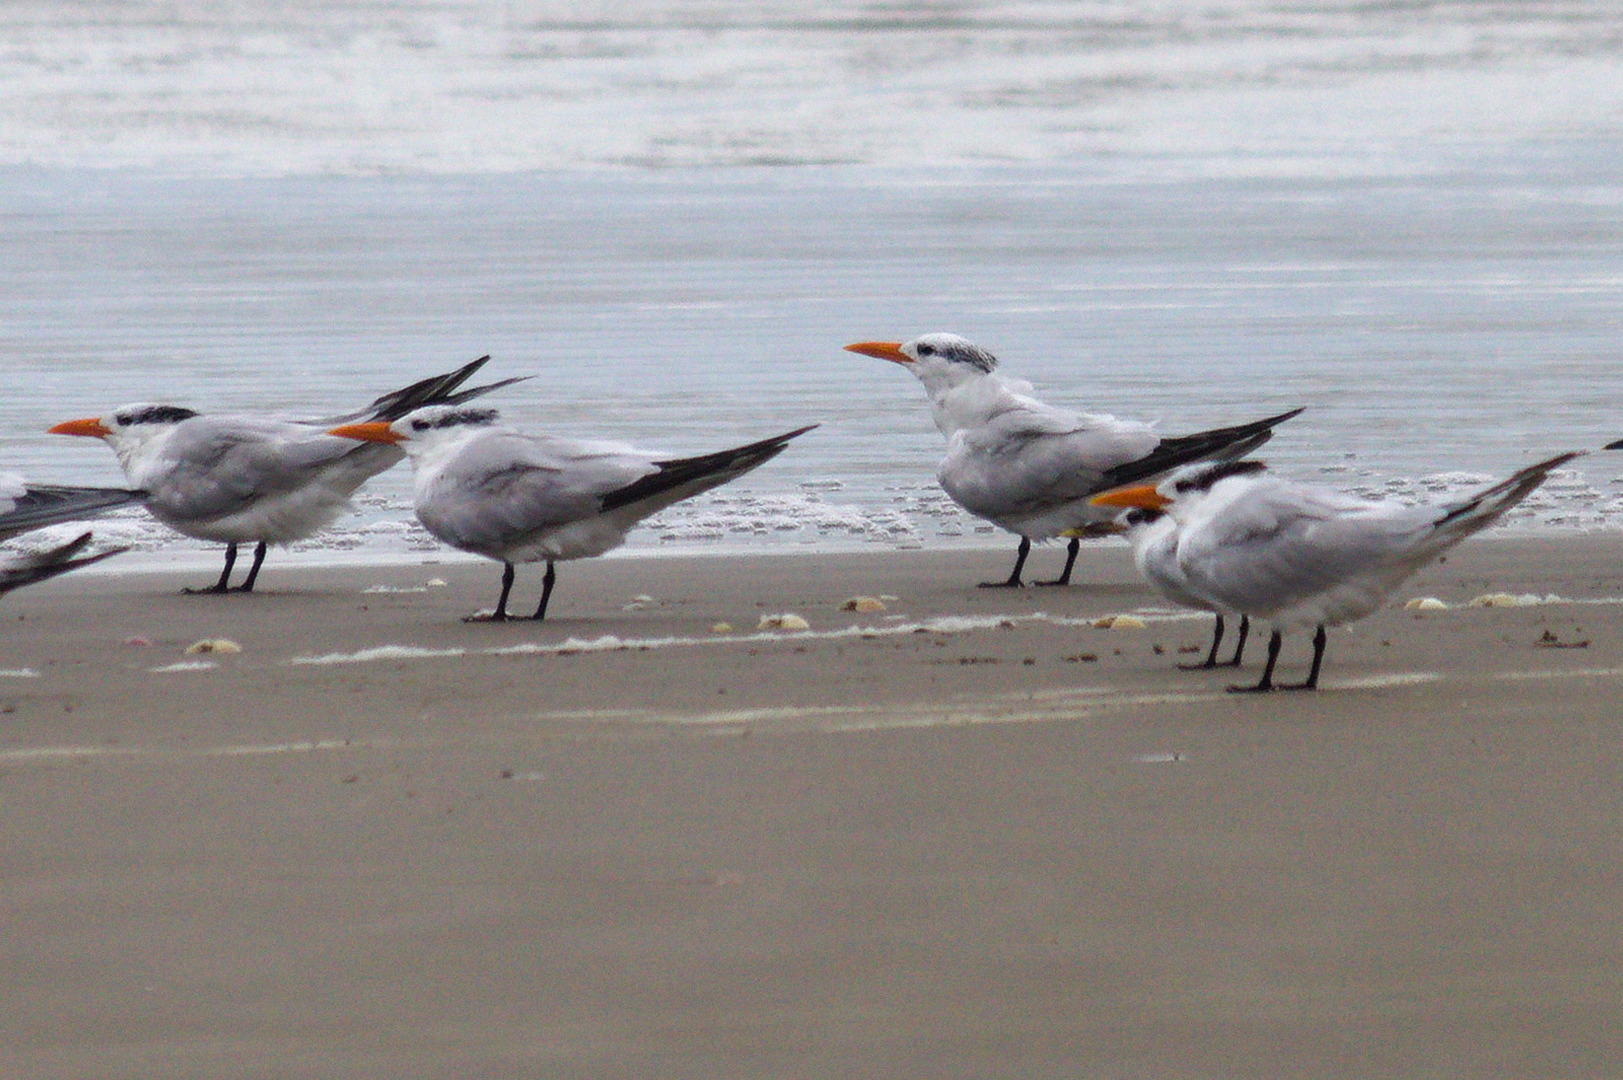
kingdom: Animalia
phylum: Chordata
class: Aves
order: Charadriiformes
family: Laridae
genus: Thalasseus
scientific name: Thalasseus maximus
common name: Royal tern
